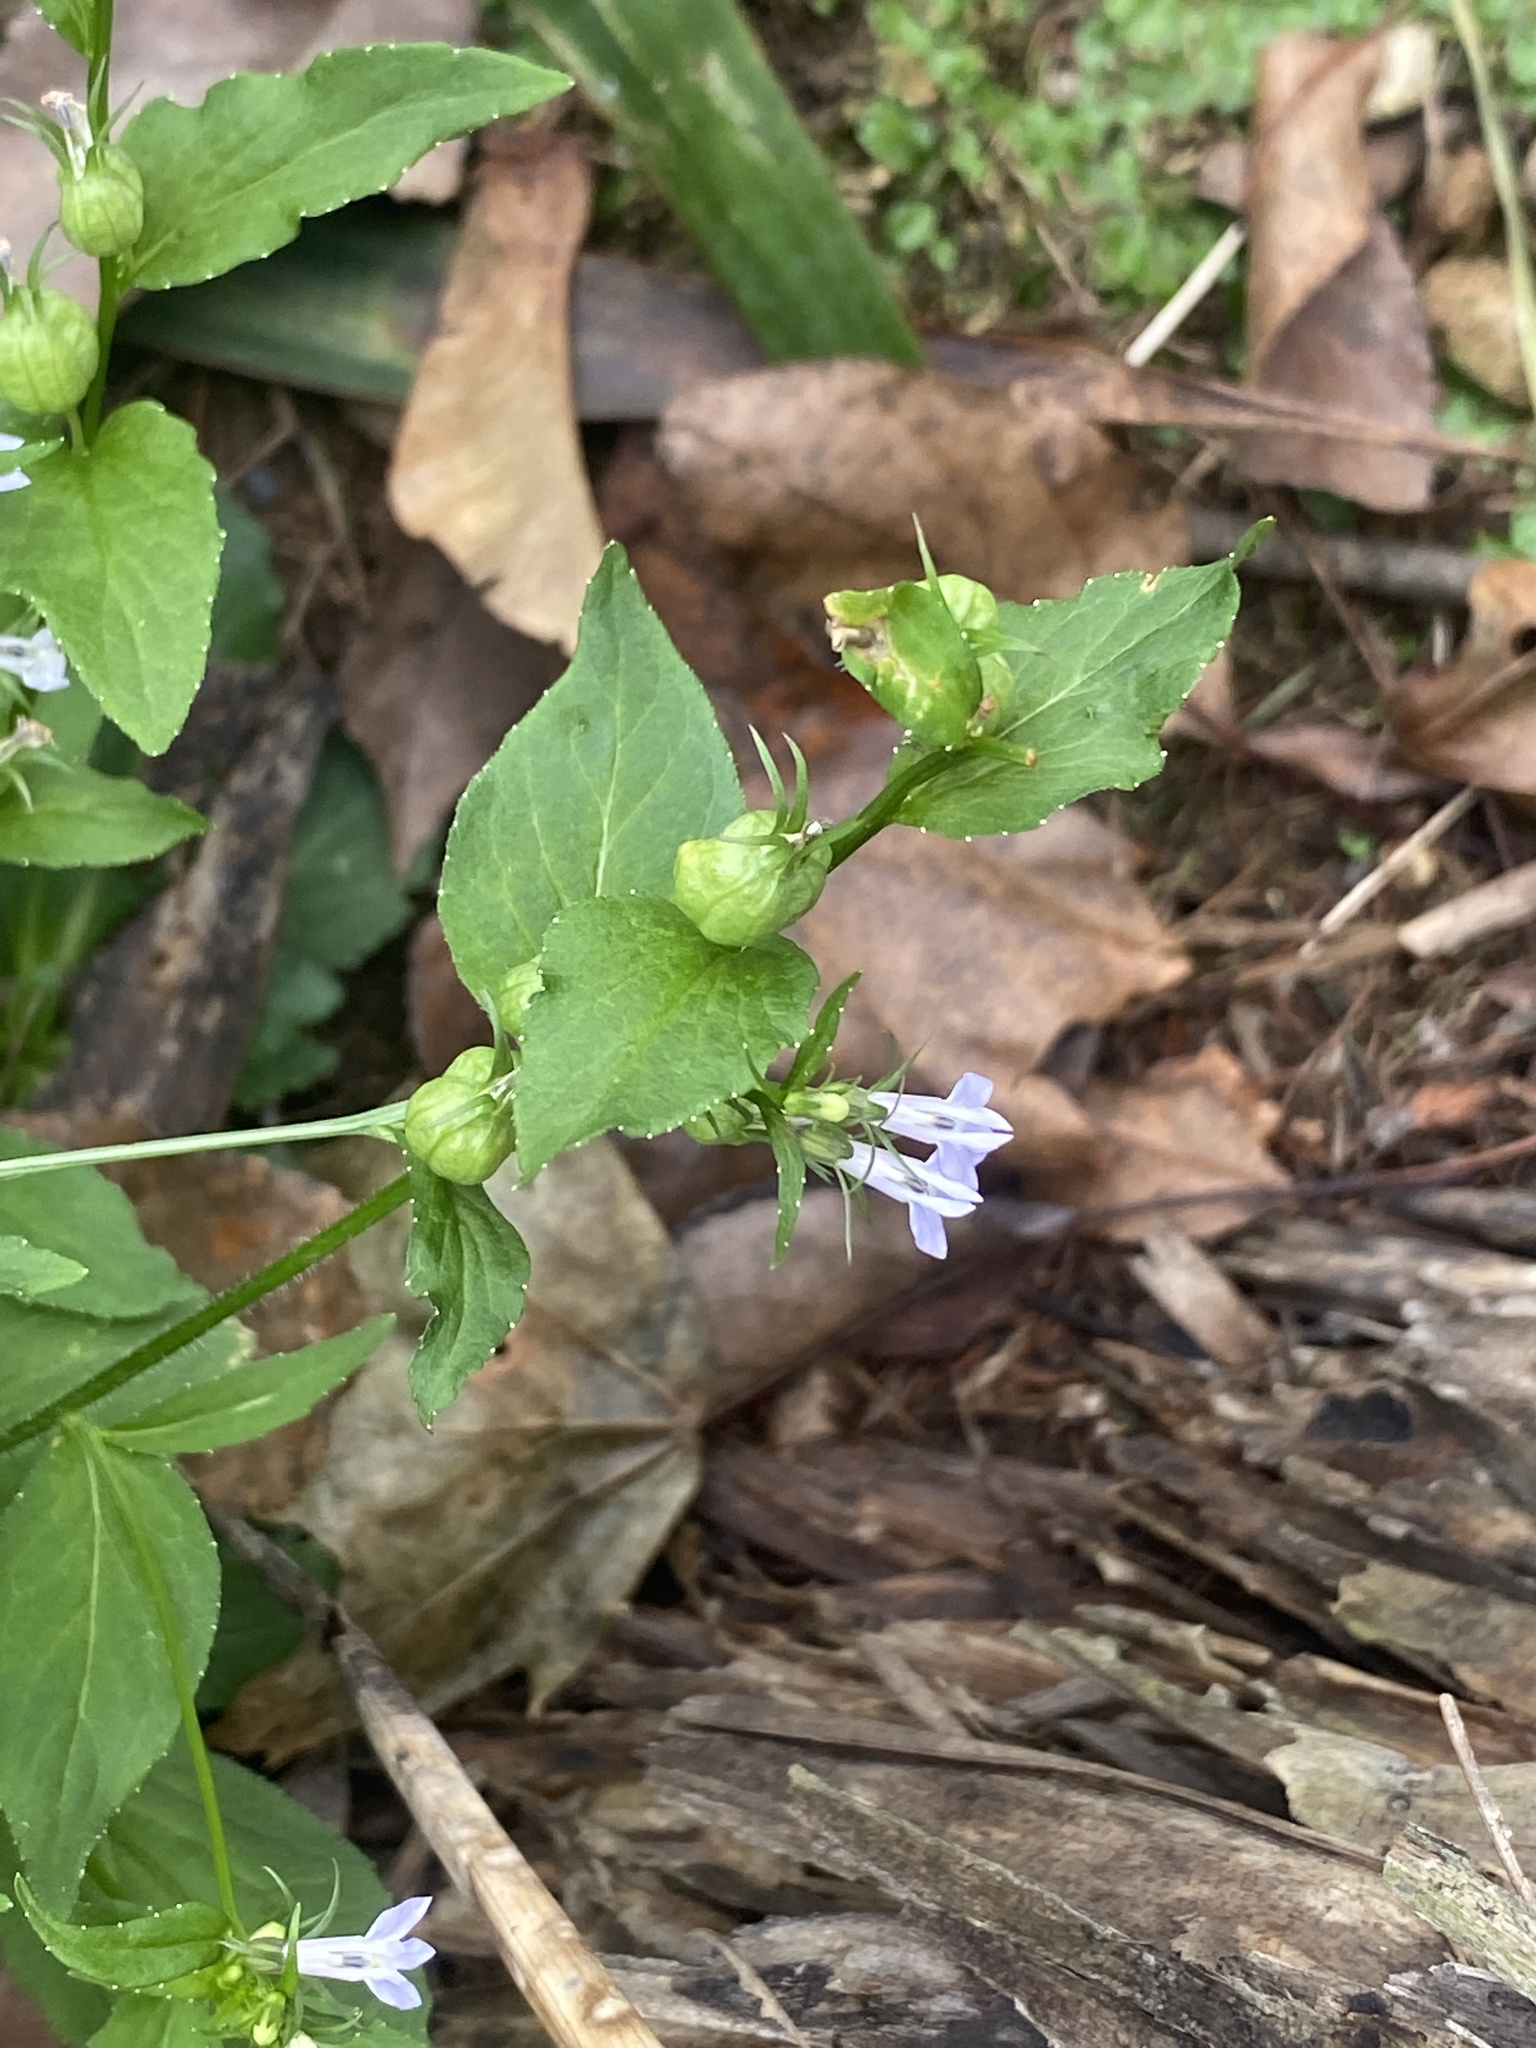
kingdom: Plantae
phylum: Tracheophyta
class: Magnoliopsida
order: Asterales
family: Campanulaceae
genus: Lobelia
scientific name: Lobelia inflata
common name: Indian tobacco
